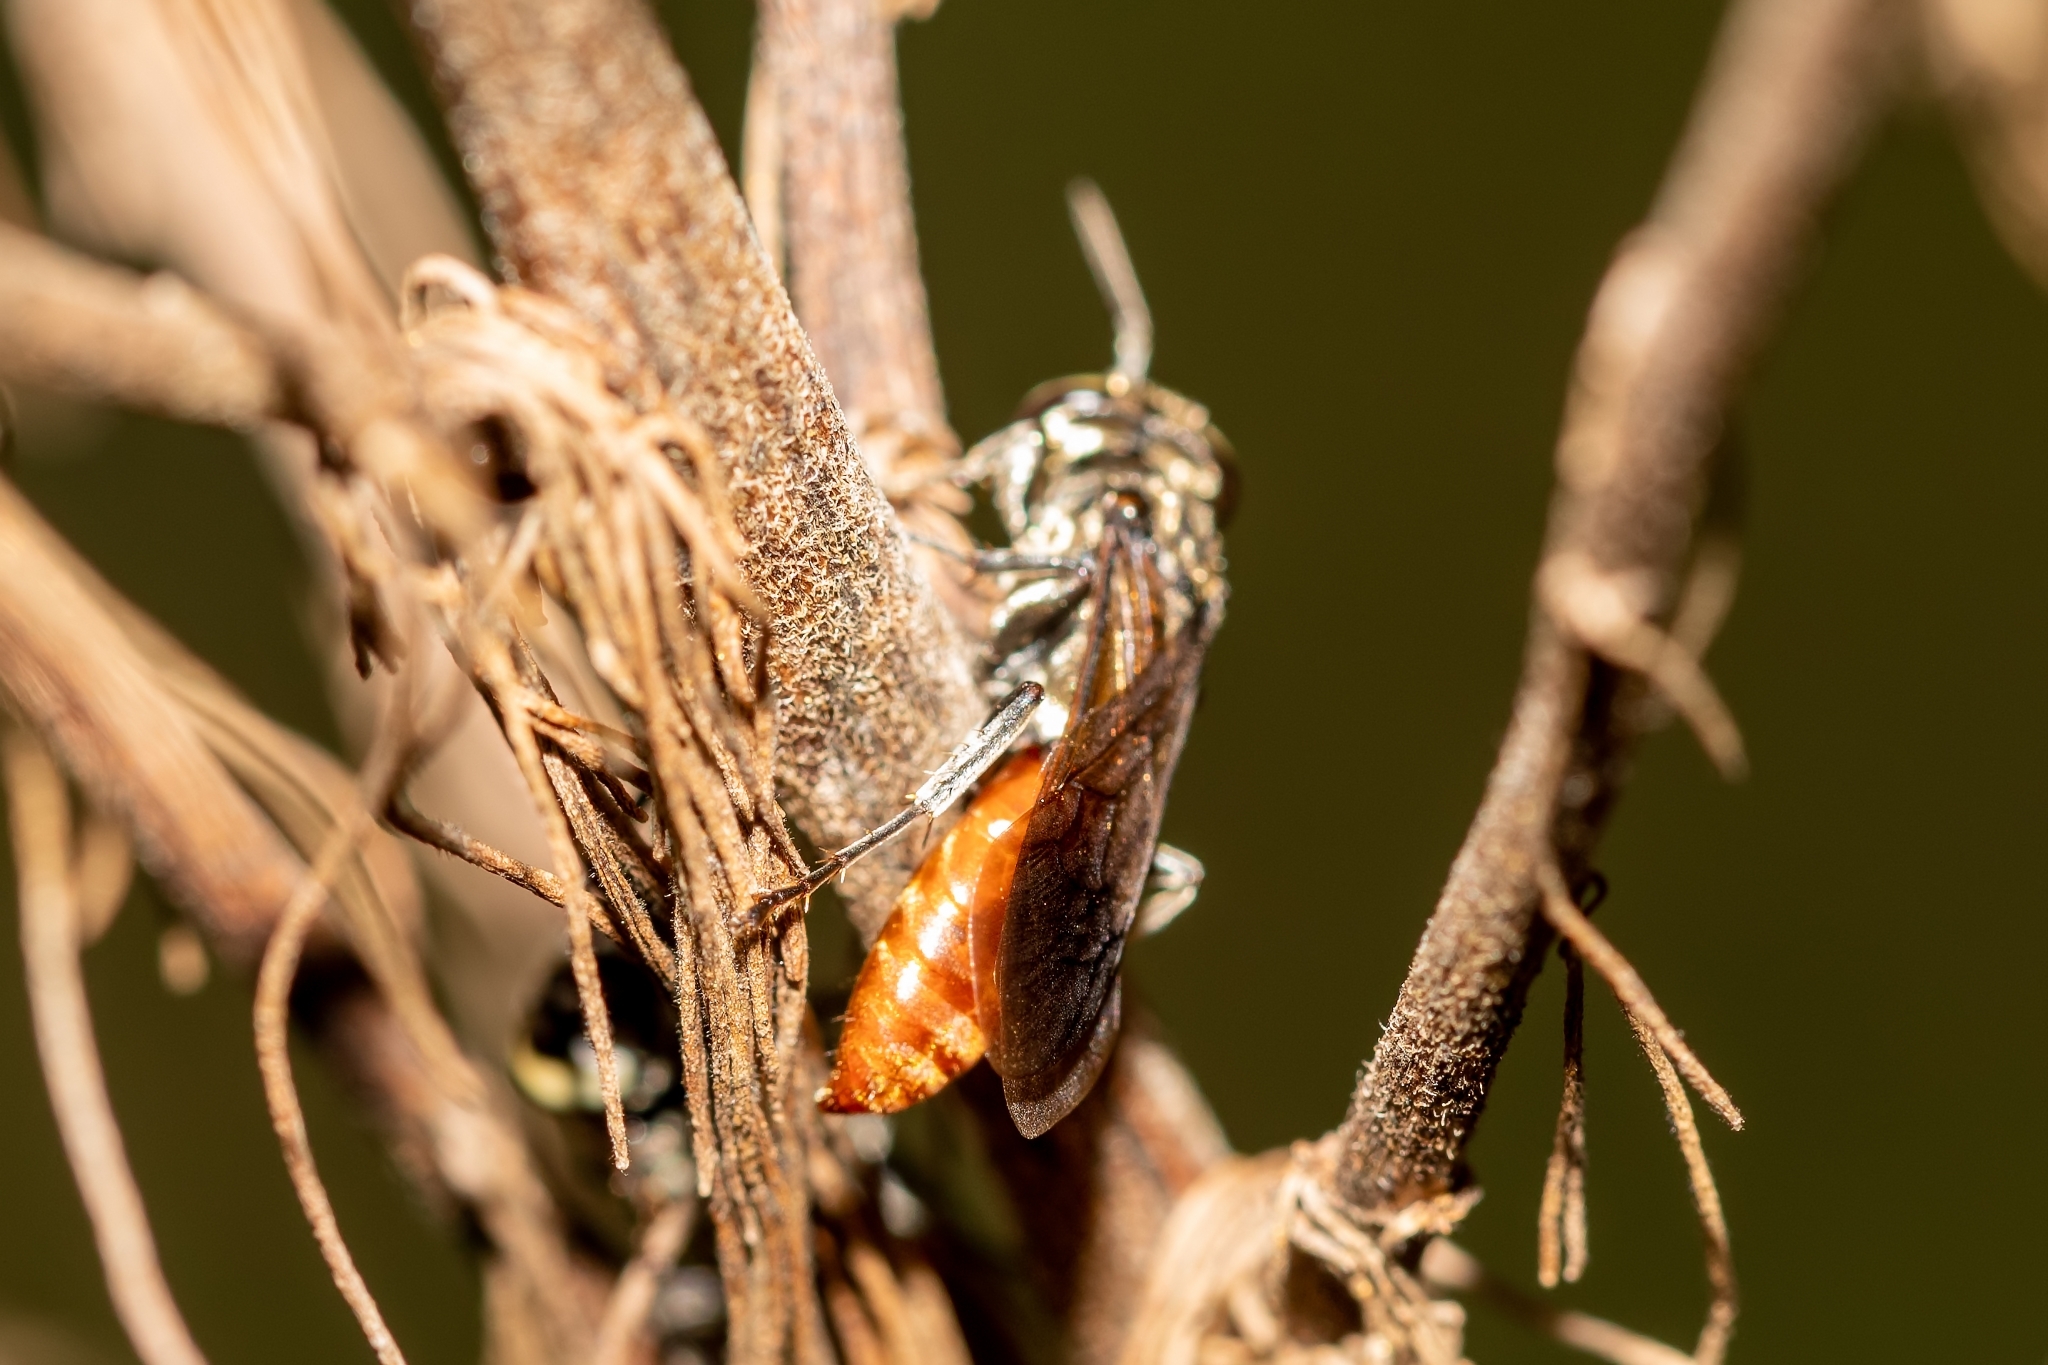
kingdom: Animalia
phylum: Arthropoda
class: Insecta
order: Hymenoptera
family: Crabronidae
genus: Larra
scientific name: Larra bicolor
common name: Wasp
